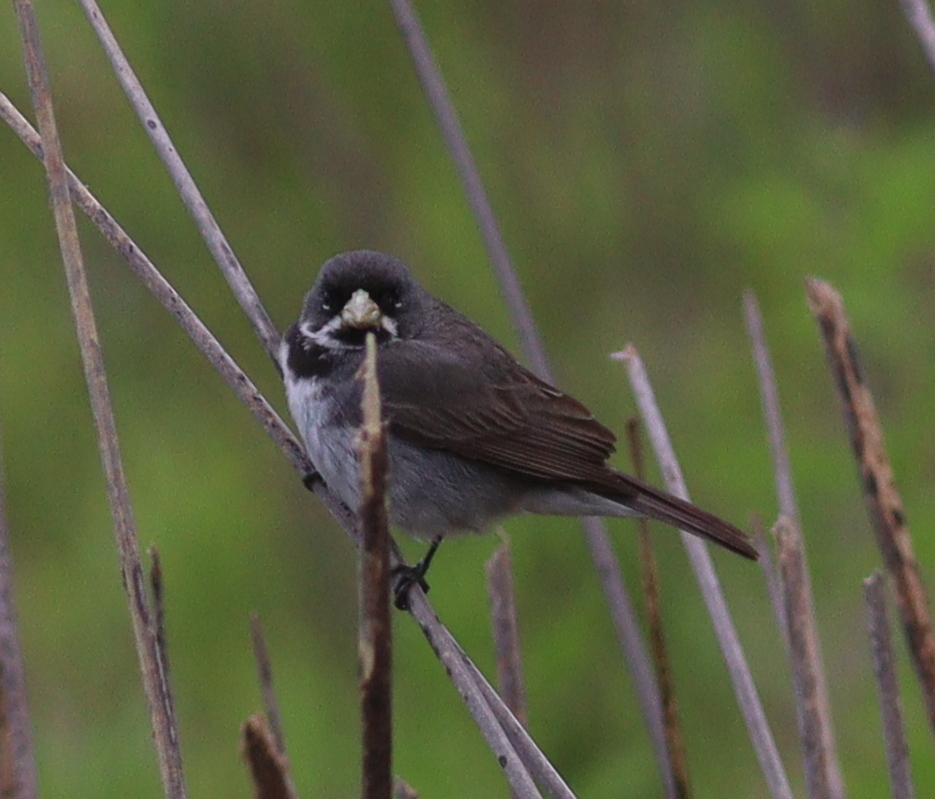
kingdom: Animalia
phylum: Chordata
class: Aves
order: Passeriformes
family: Thraupidae
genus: Sporophila
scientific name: Sporophila caerulescens
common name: Double-collared seedeater
